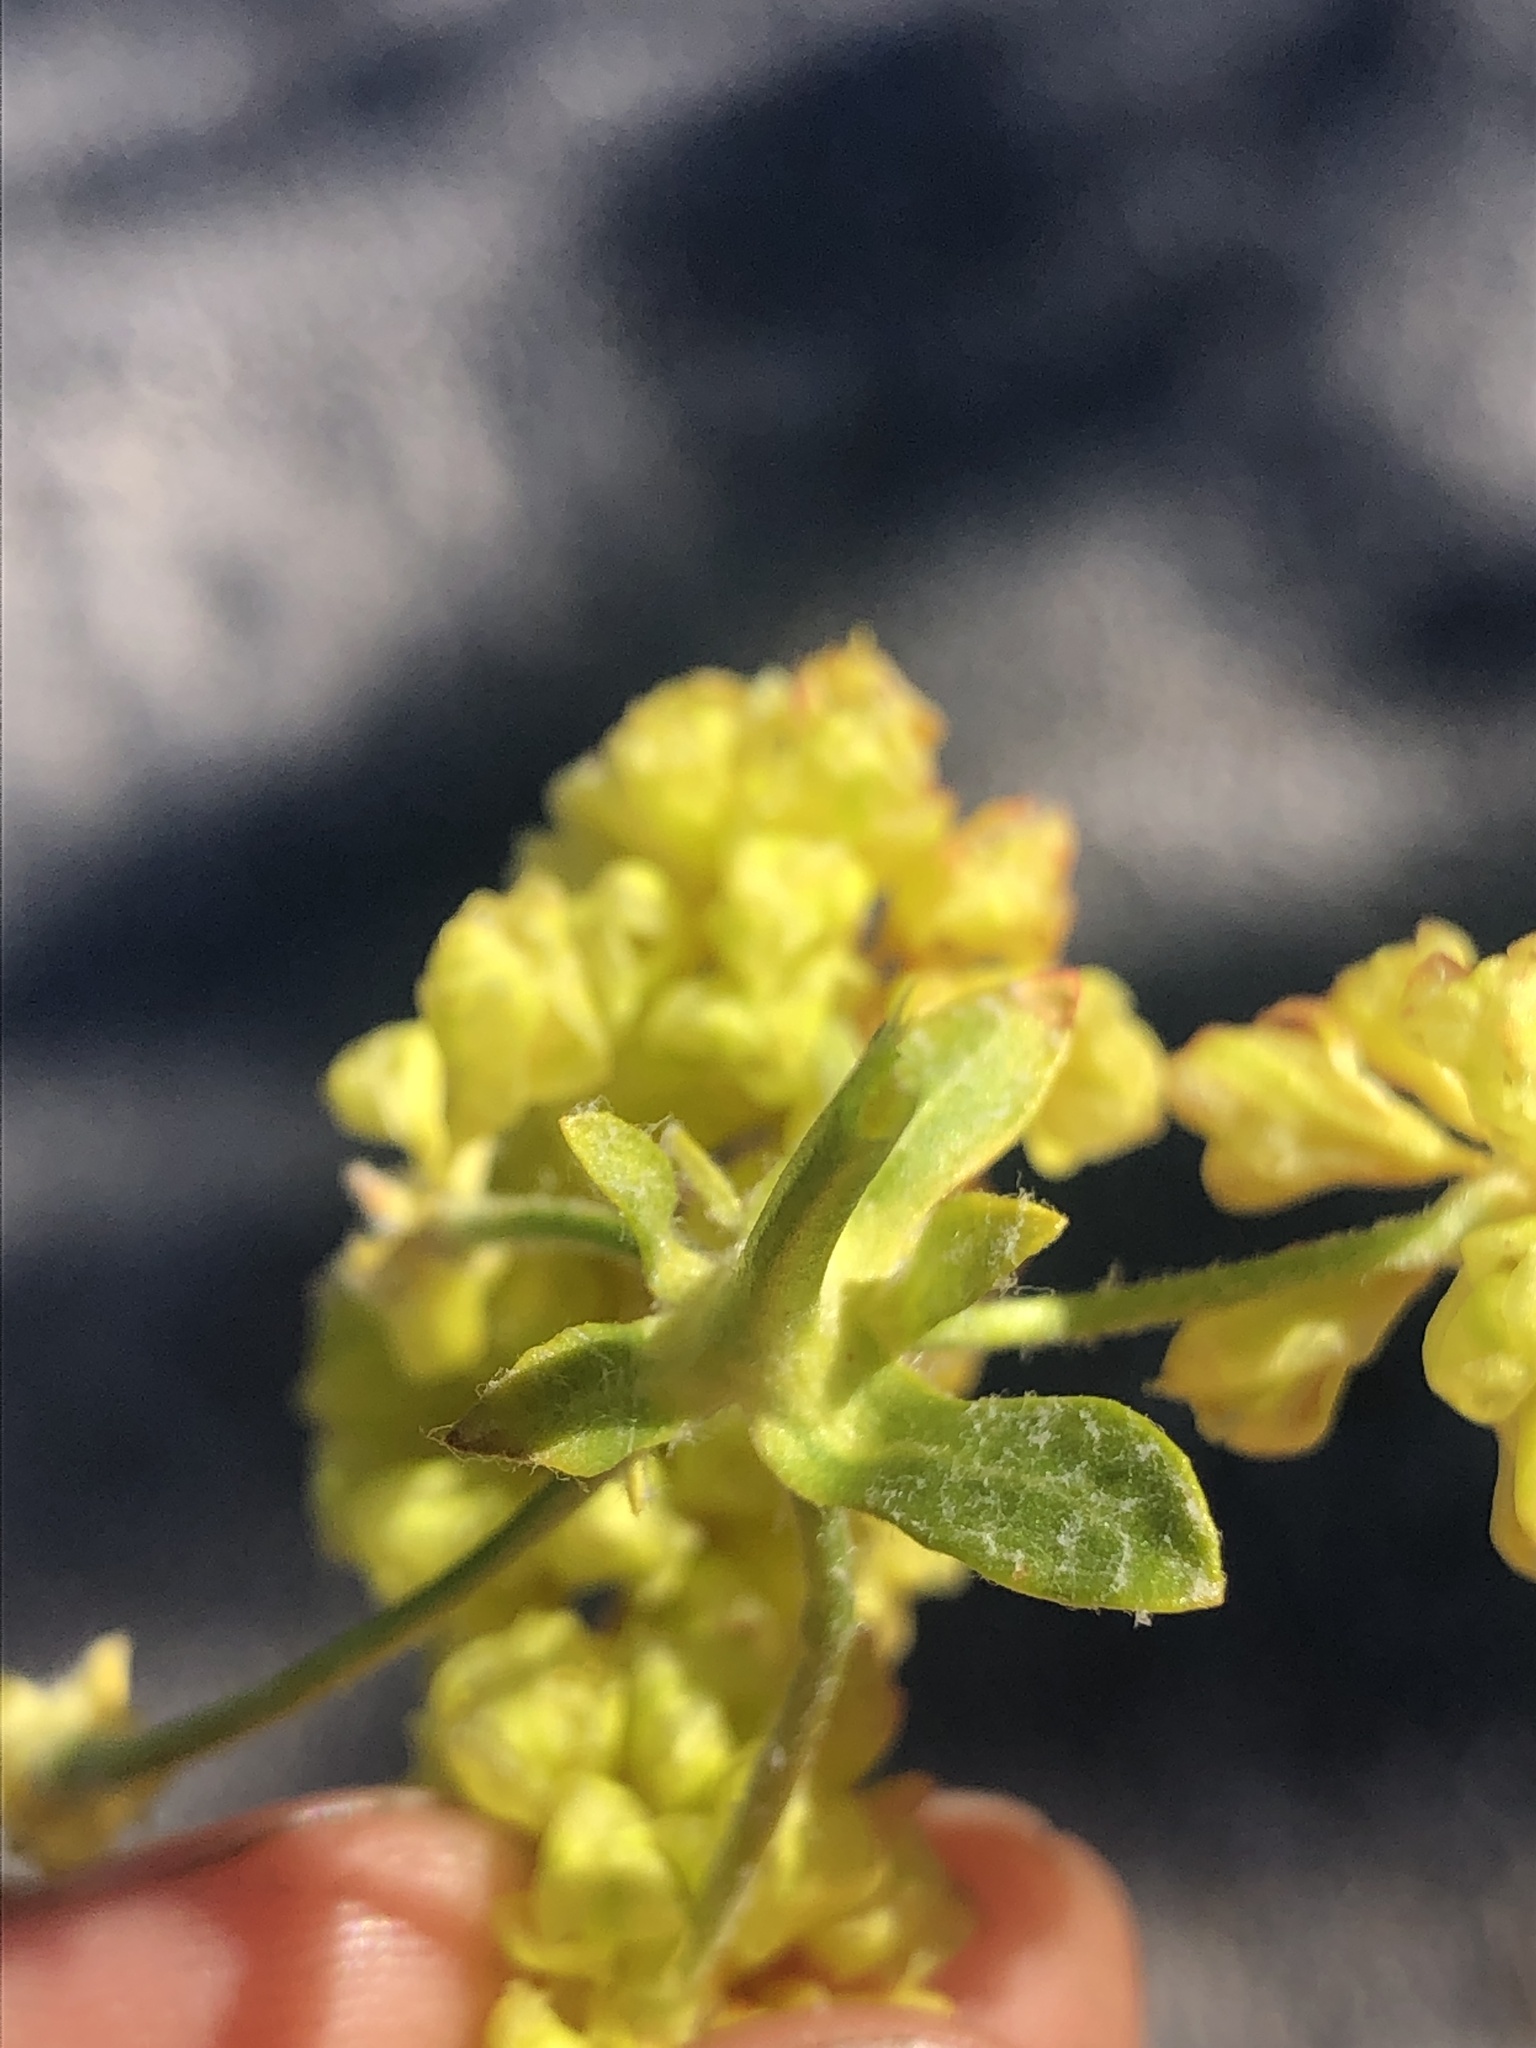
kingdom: Plantae
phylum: Tracheophyta
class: Magnoliopsida
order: Caryophyllales
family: Polygonaceae
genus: Eriogonum
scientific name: Eriogonum umbellatum
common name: Sulfur-buckwheat
